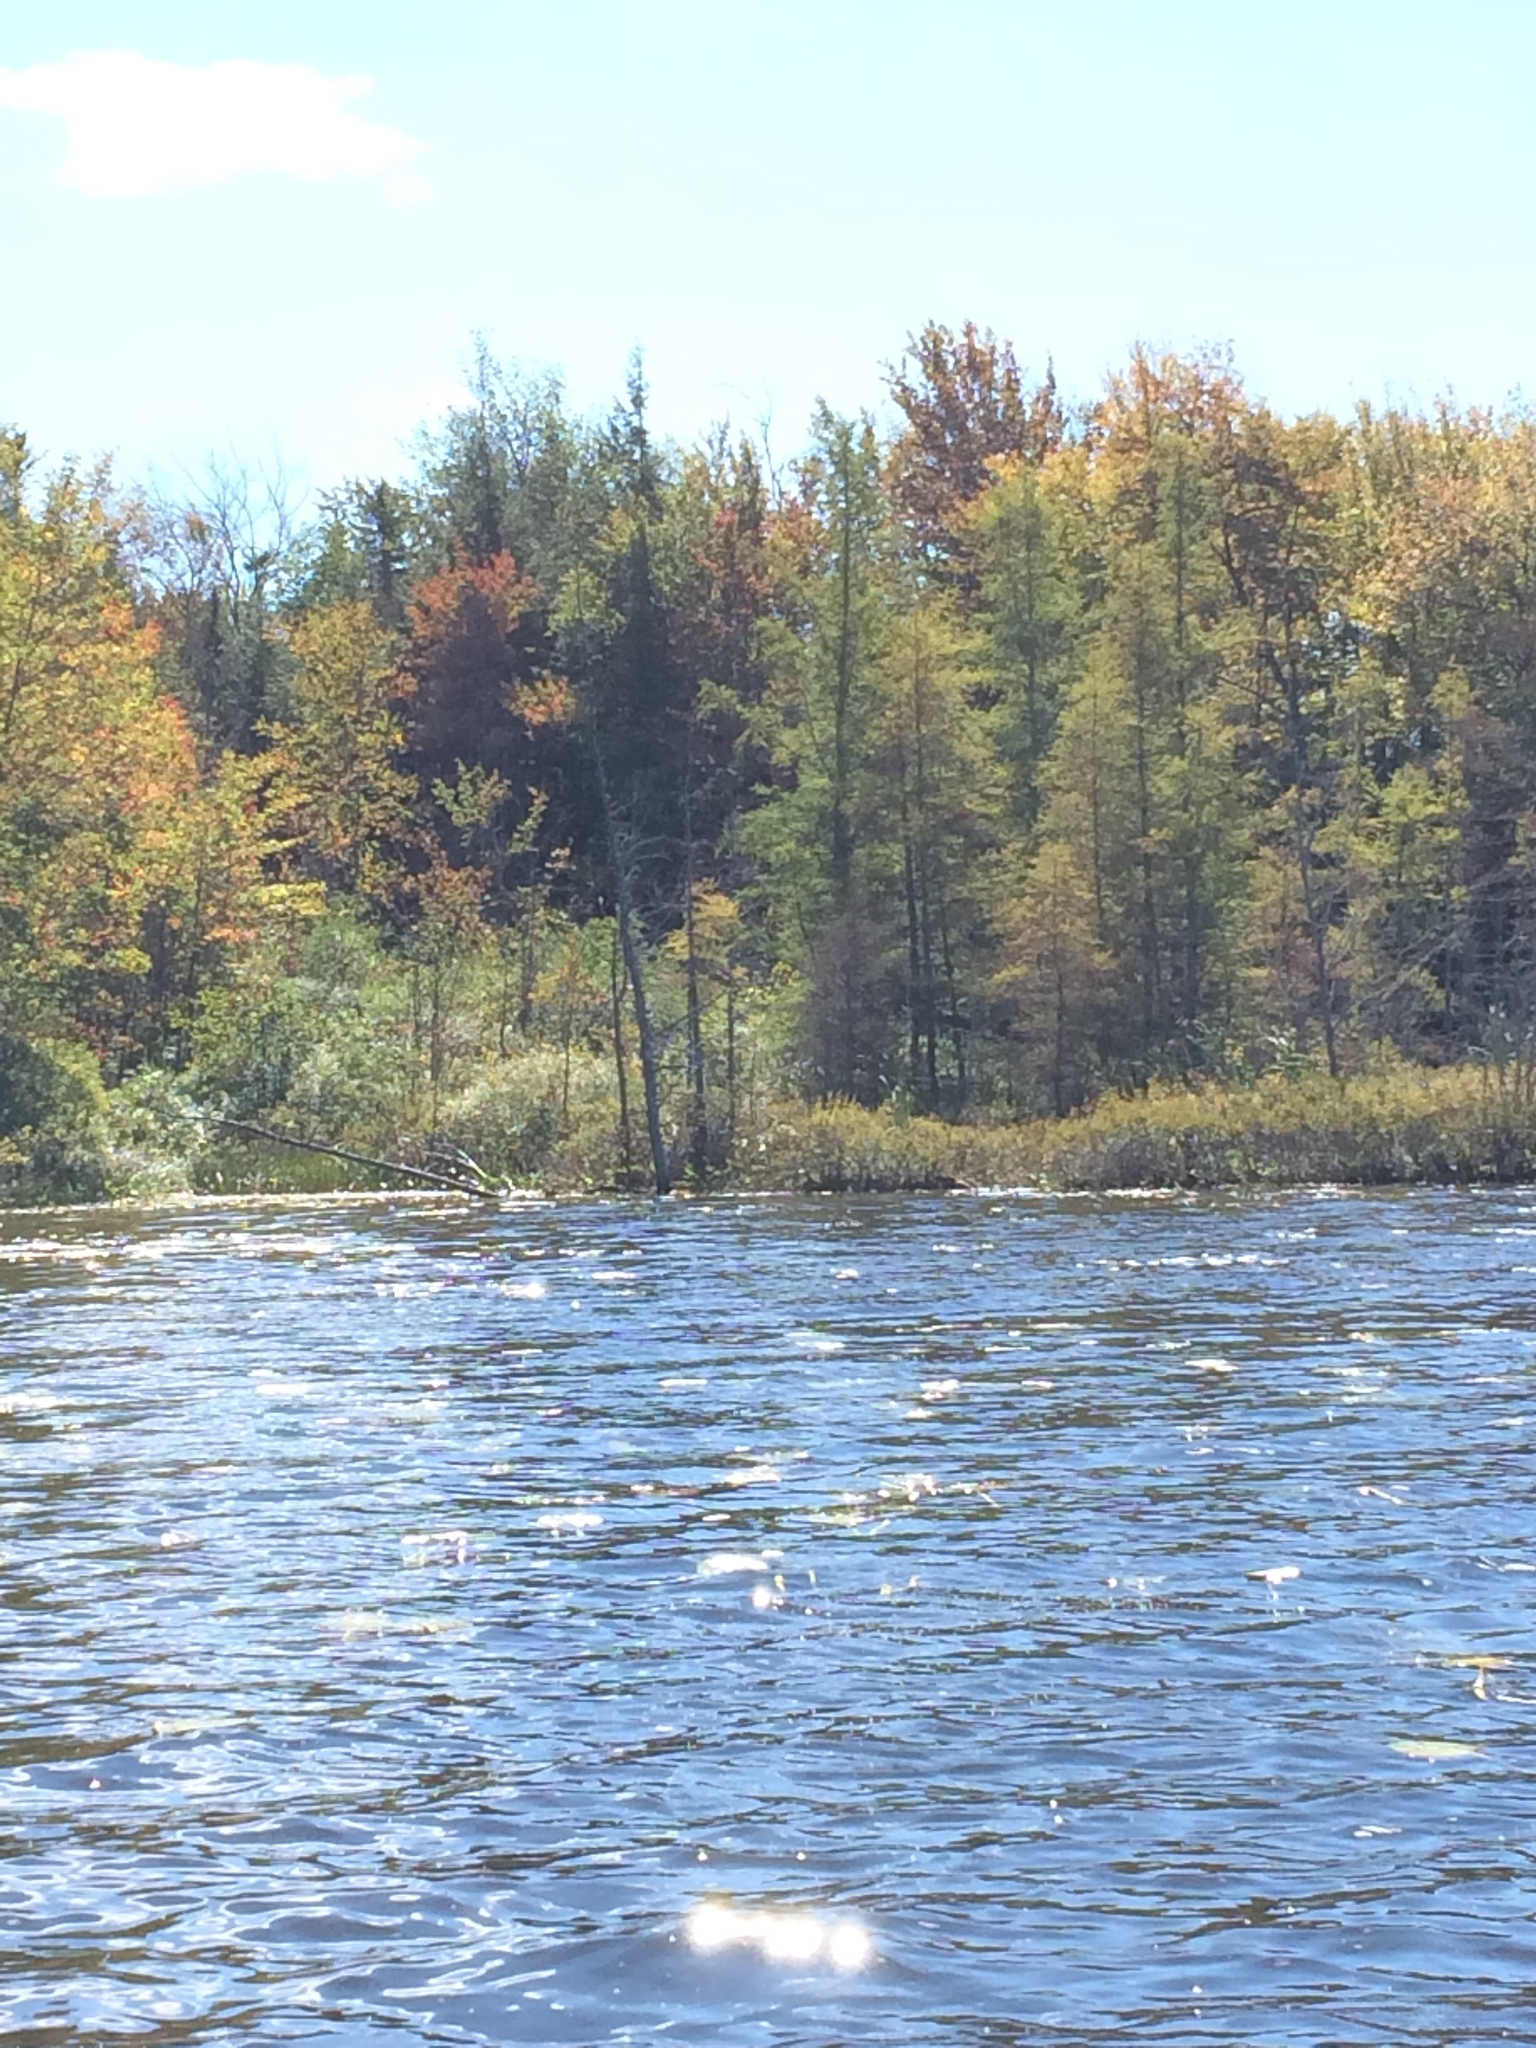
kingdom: Plantae
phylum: Tracheophyta
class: Pinopsida
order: Pinales
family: Pinaceae
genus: Larix
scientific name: Larix laricina
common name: American larch
